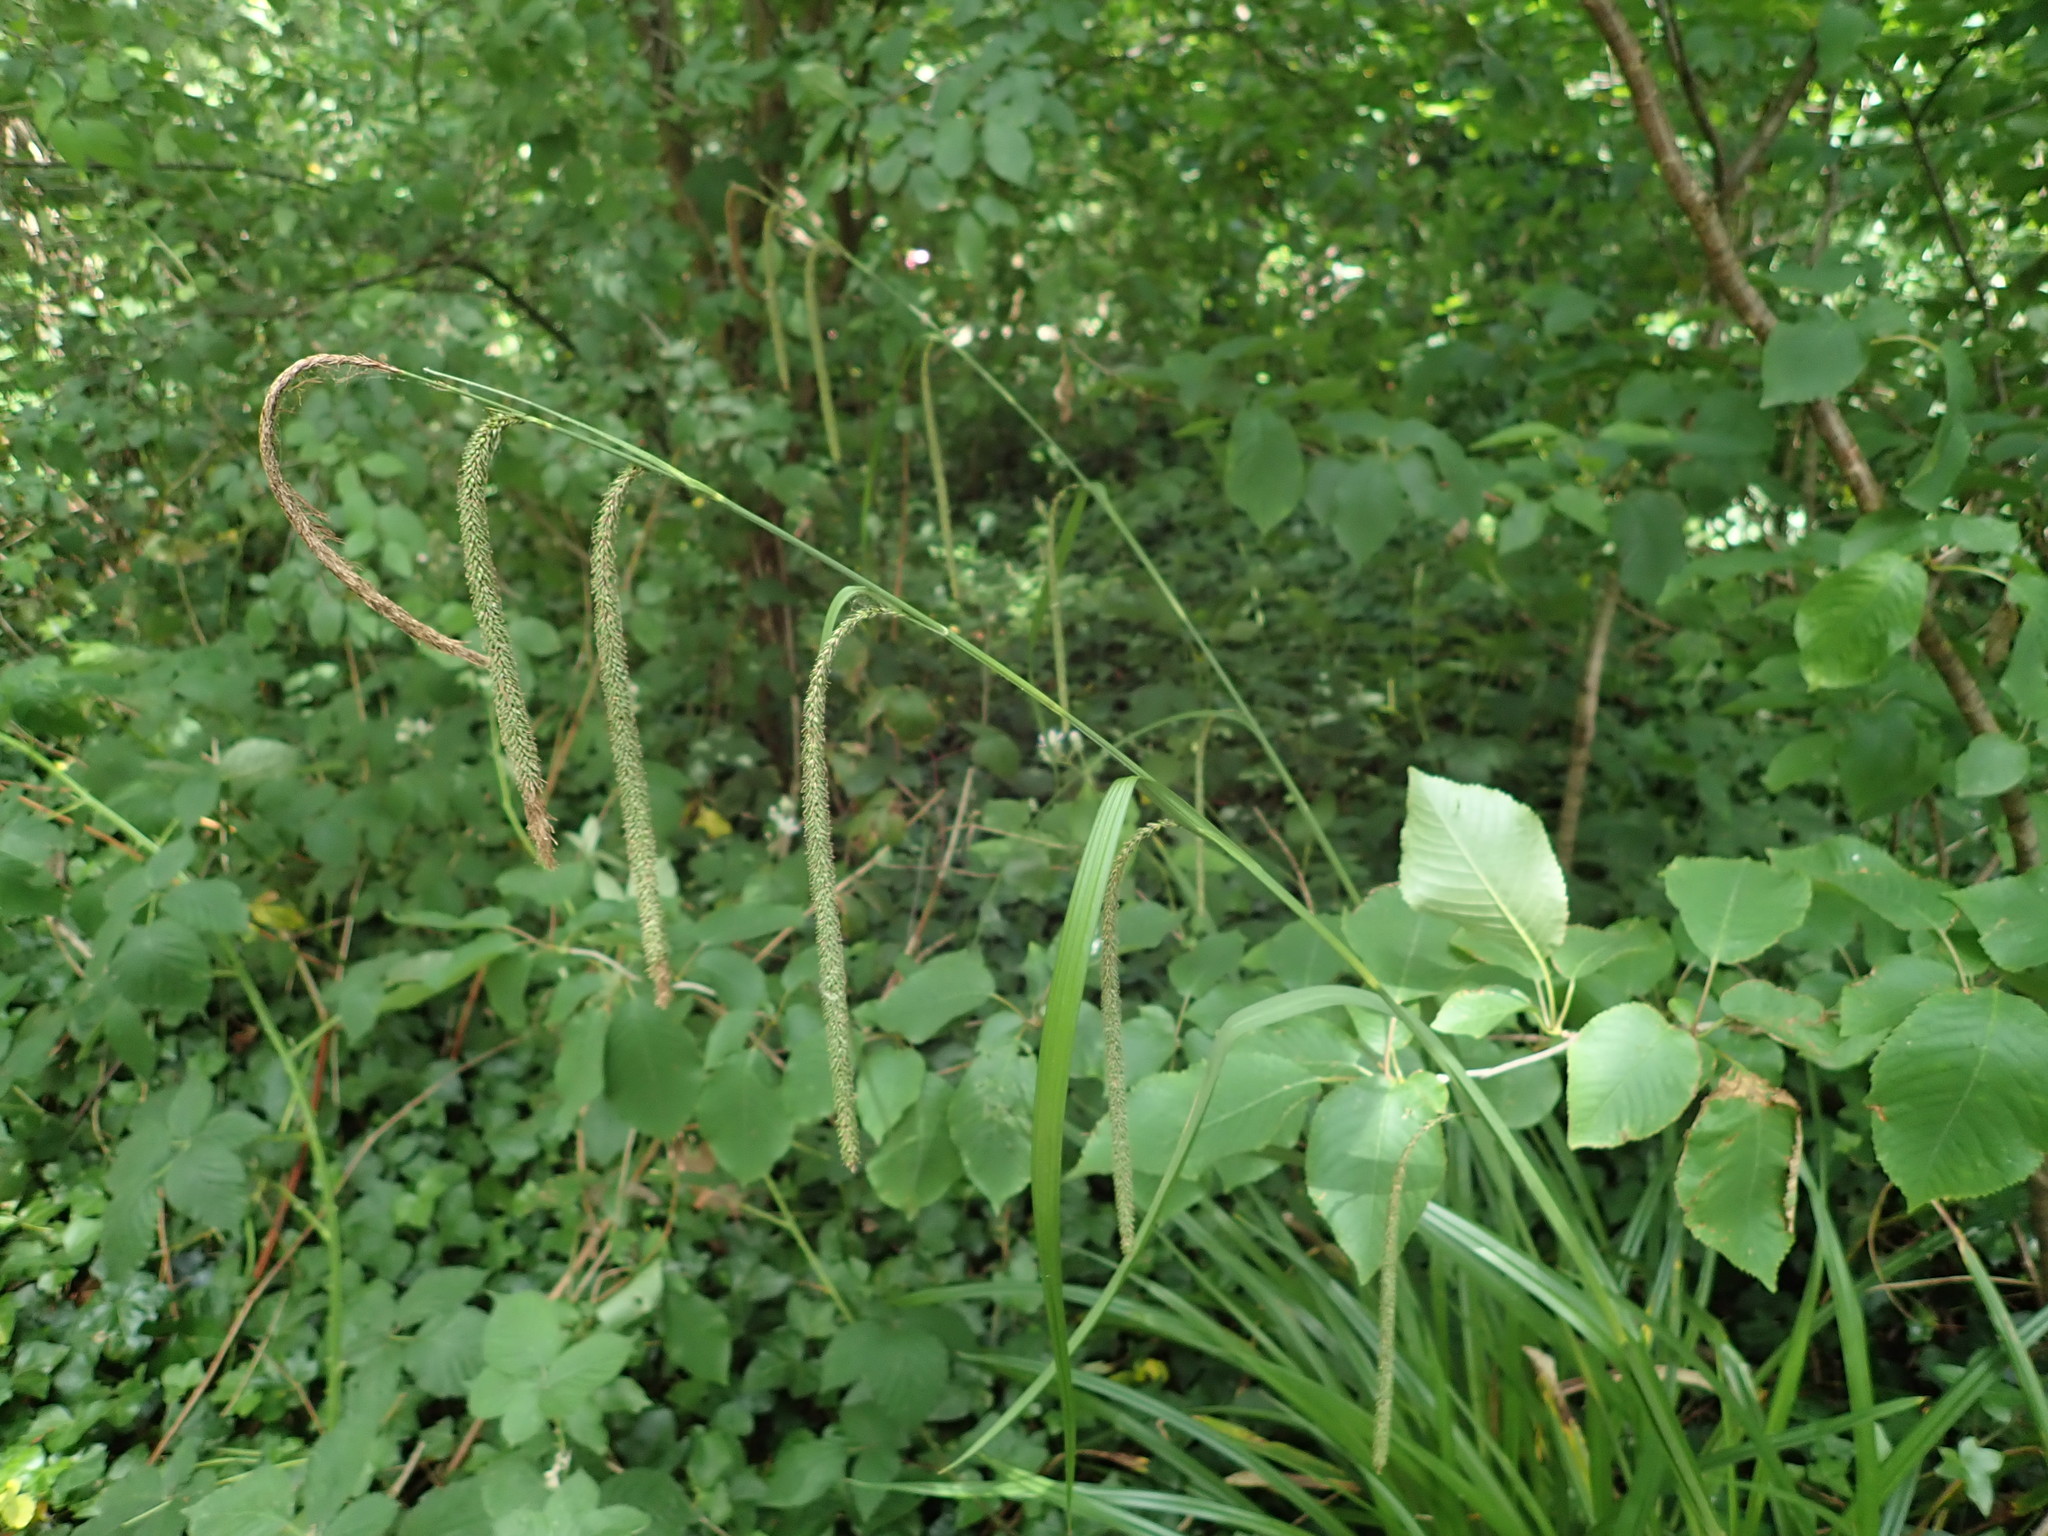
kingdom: Plantae
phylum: Tracheophyta
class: Liliopsida
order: Poales
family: Cyperaceae
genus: Carex
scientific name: Carex pendula
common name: Pendulous sedge
